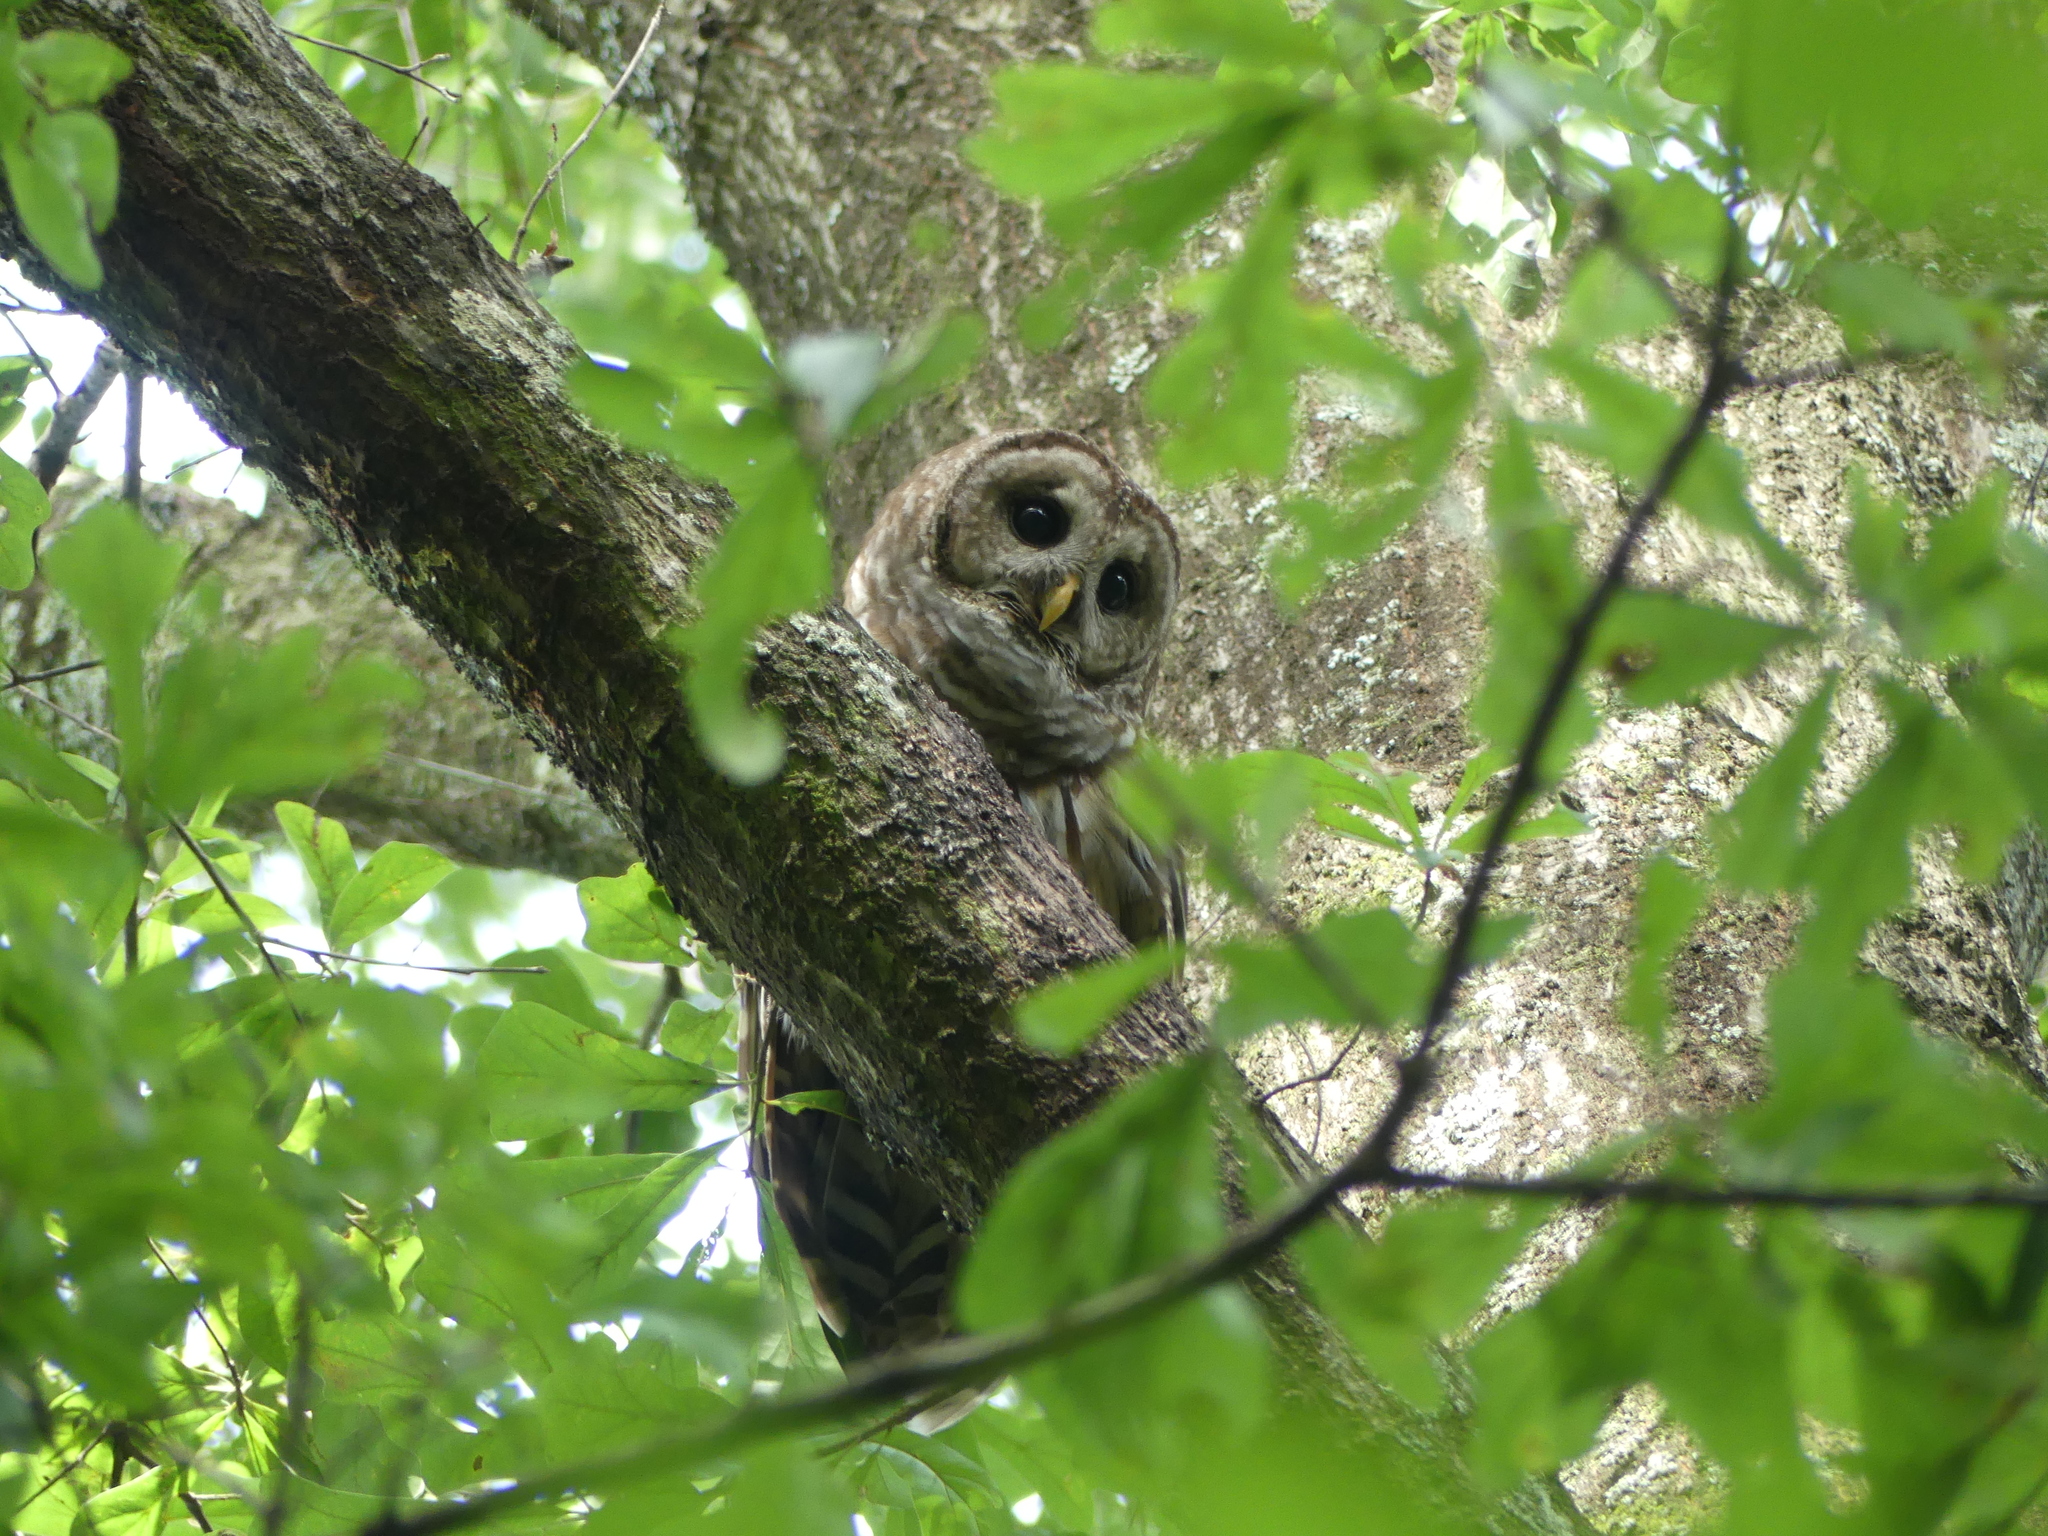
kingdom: Animalia
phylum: Chordata
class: Aves
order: Strigiformes
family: Strigidae
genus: Strix
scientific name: Strix varia
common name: Barred owl
